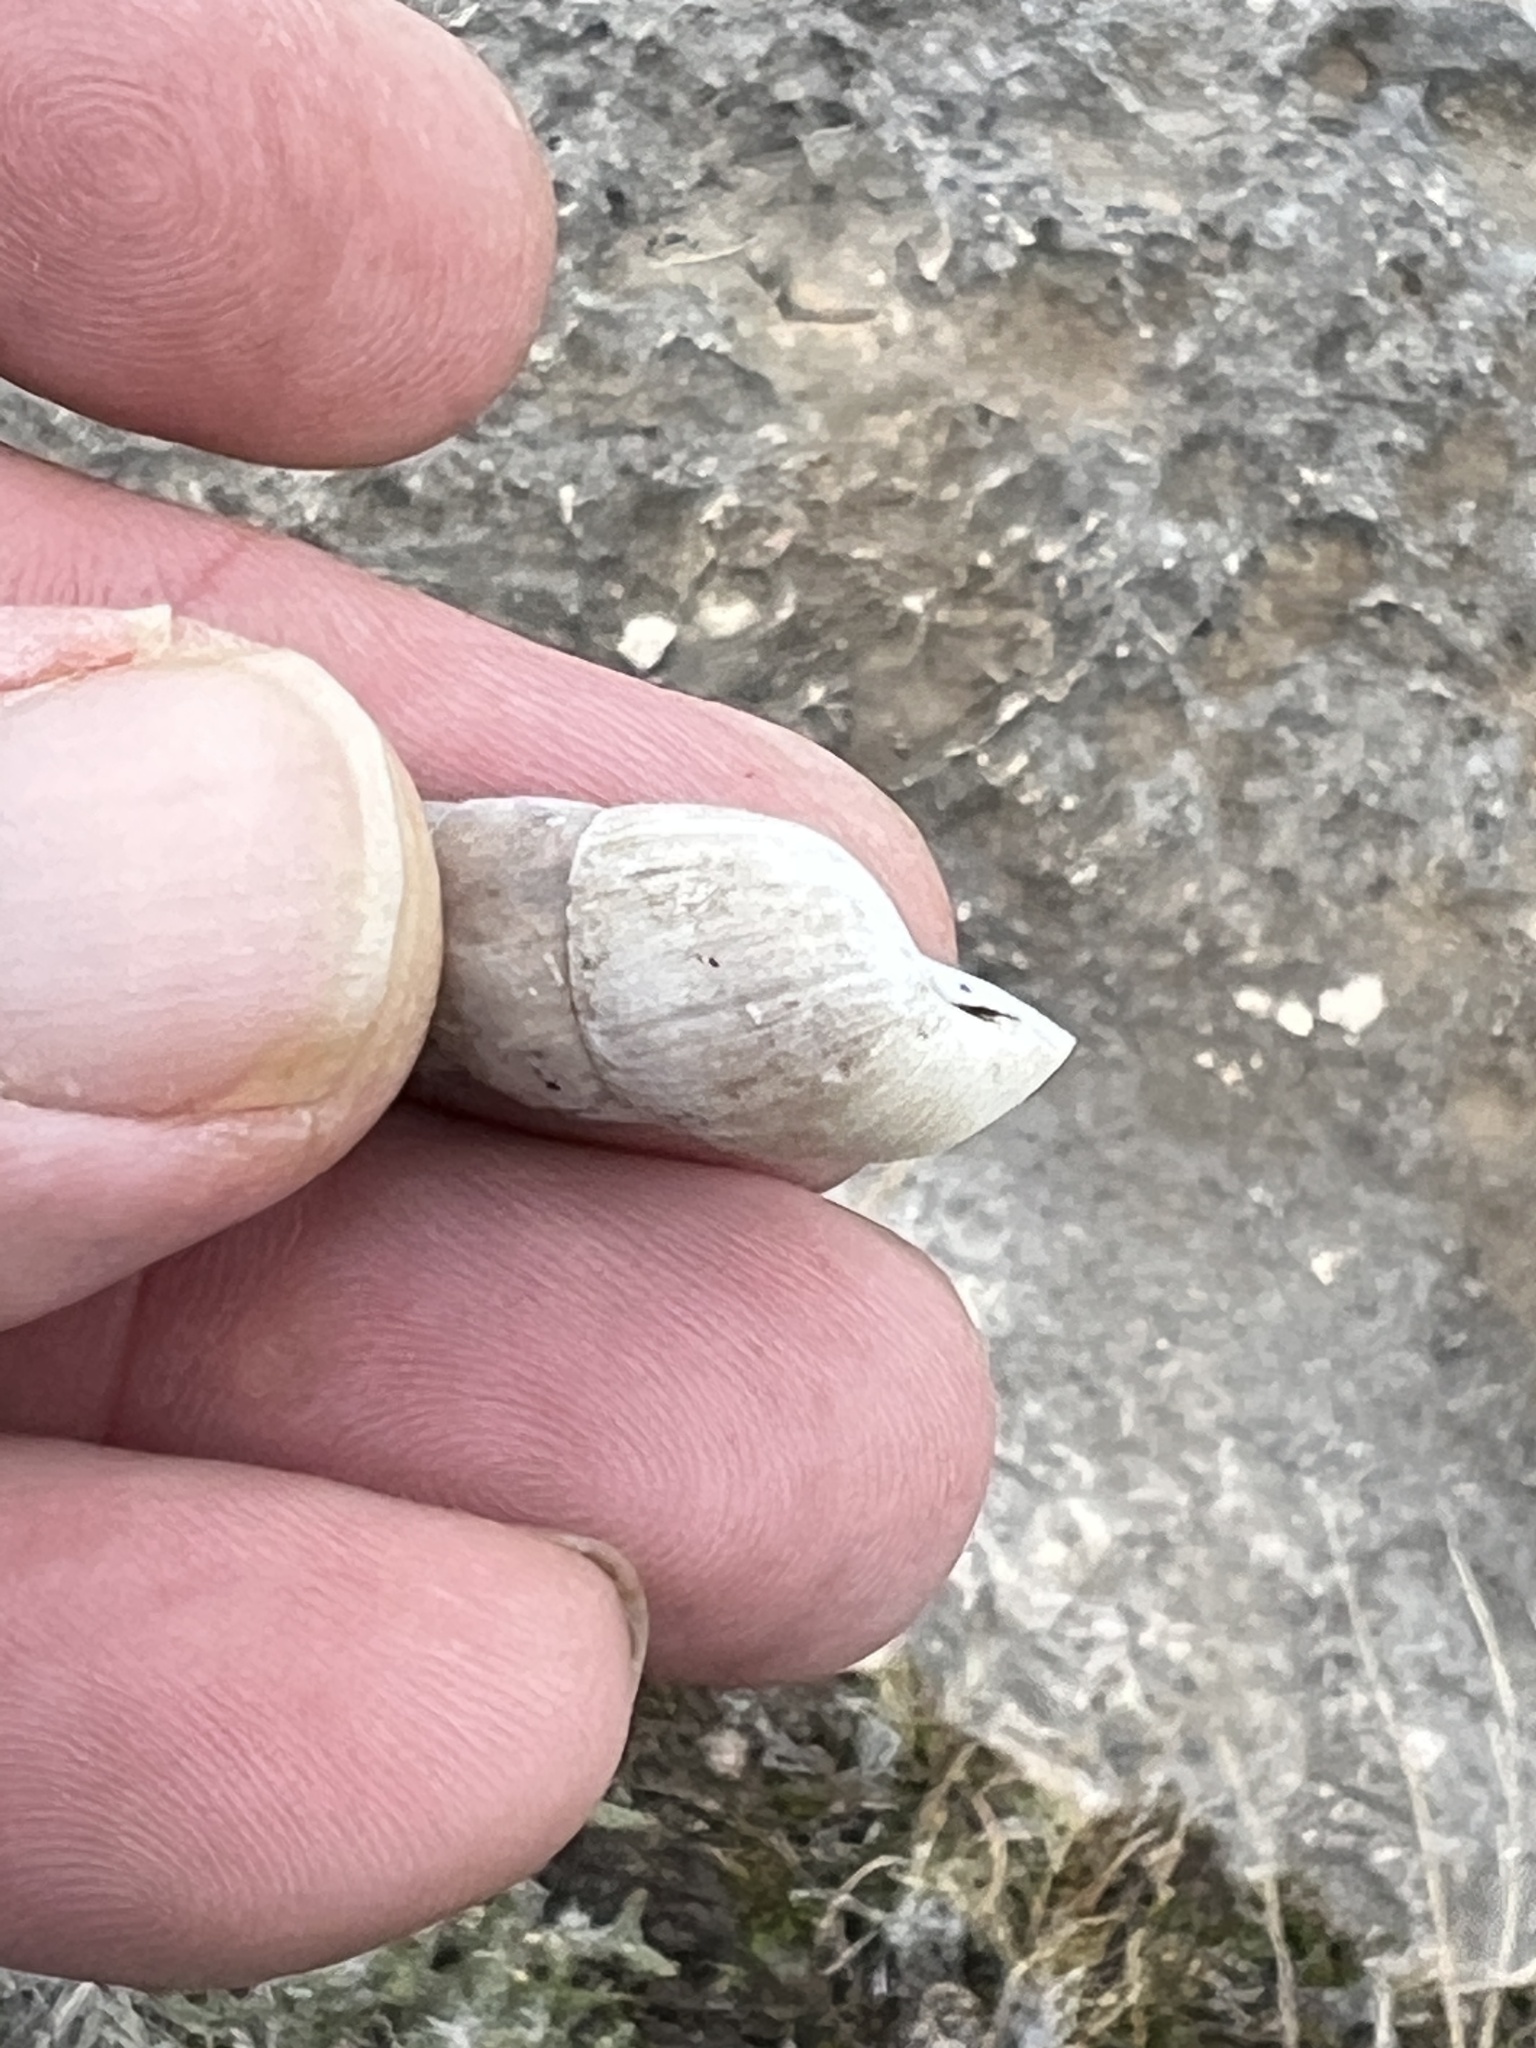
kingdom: Animalia
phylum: Mollusca
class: Gastropoda
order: Stylommatophora
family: Achatinidae
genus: Rumina
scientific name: Rumina decollata
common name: Decollate snail
